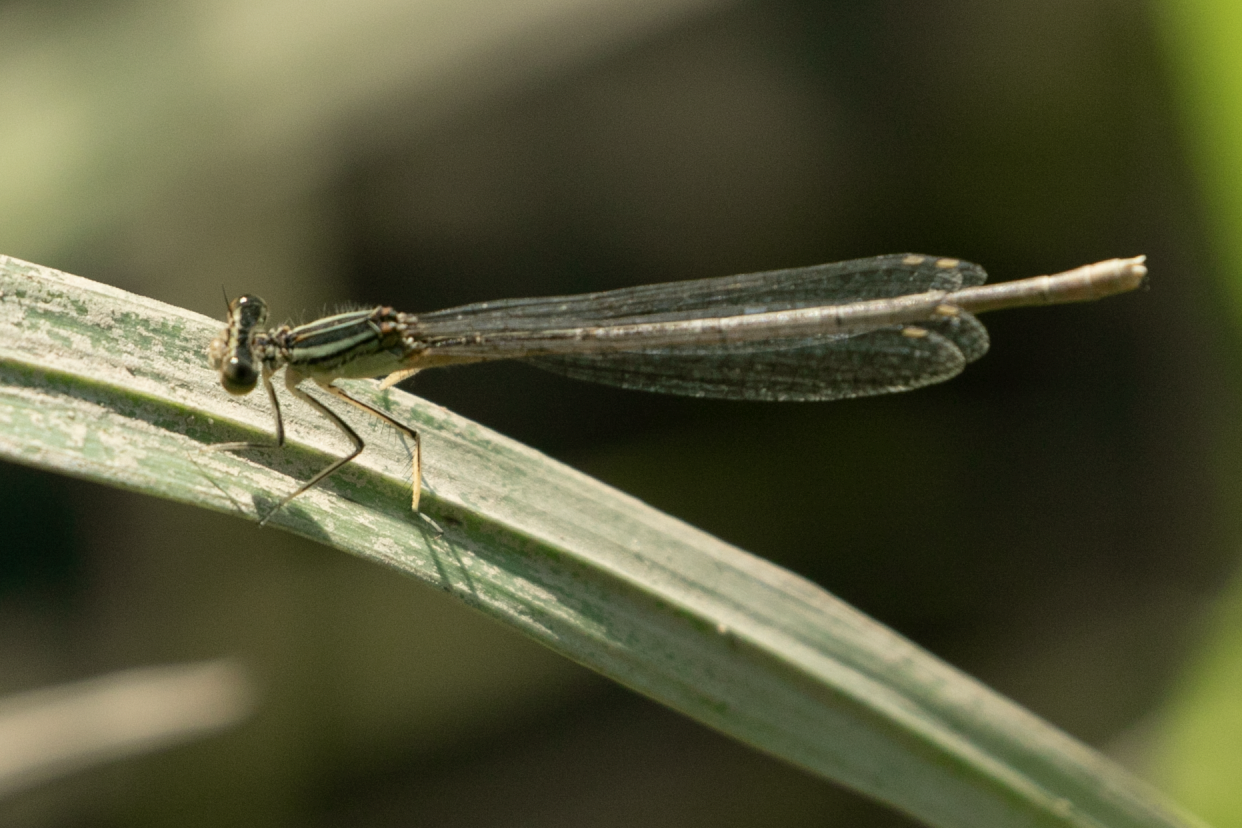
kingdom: Animalia
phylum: Arthropoda
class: Insecta
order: Odonata
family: Platycnemididae
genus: Platycnemis
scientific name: Platycnemis pennipes
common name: White-legged damselfly
